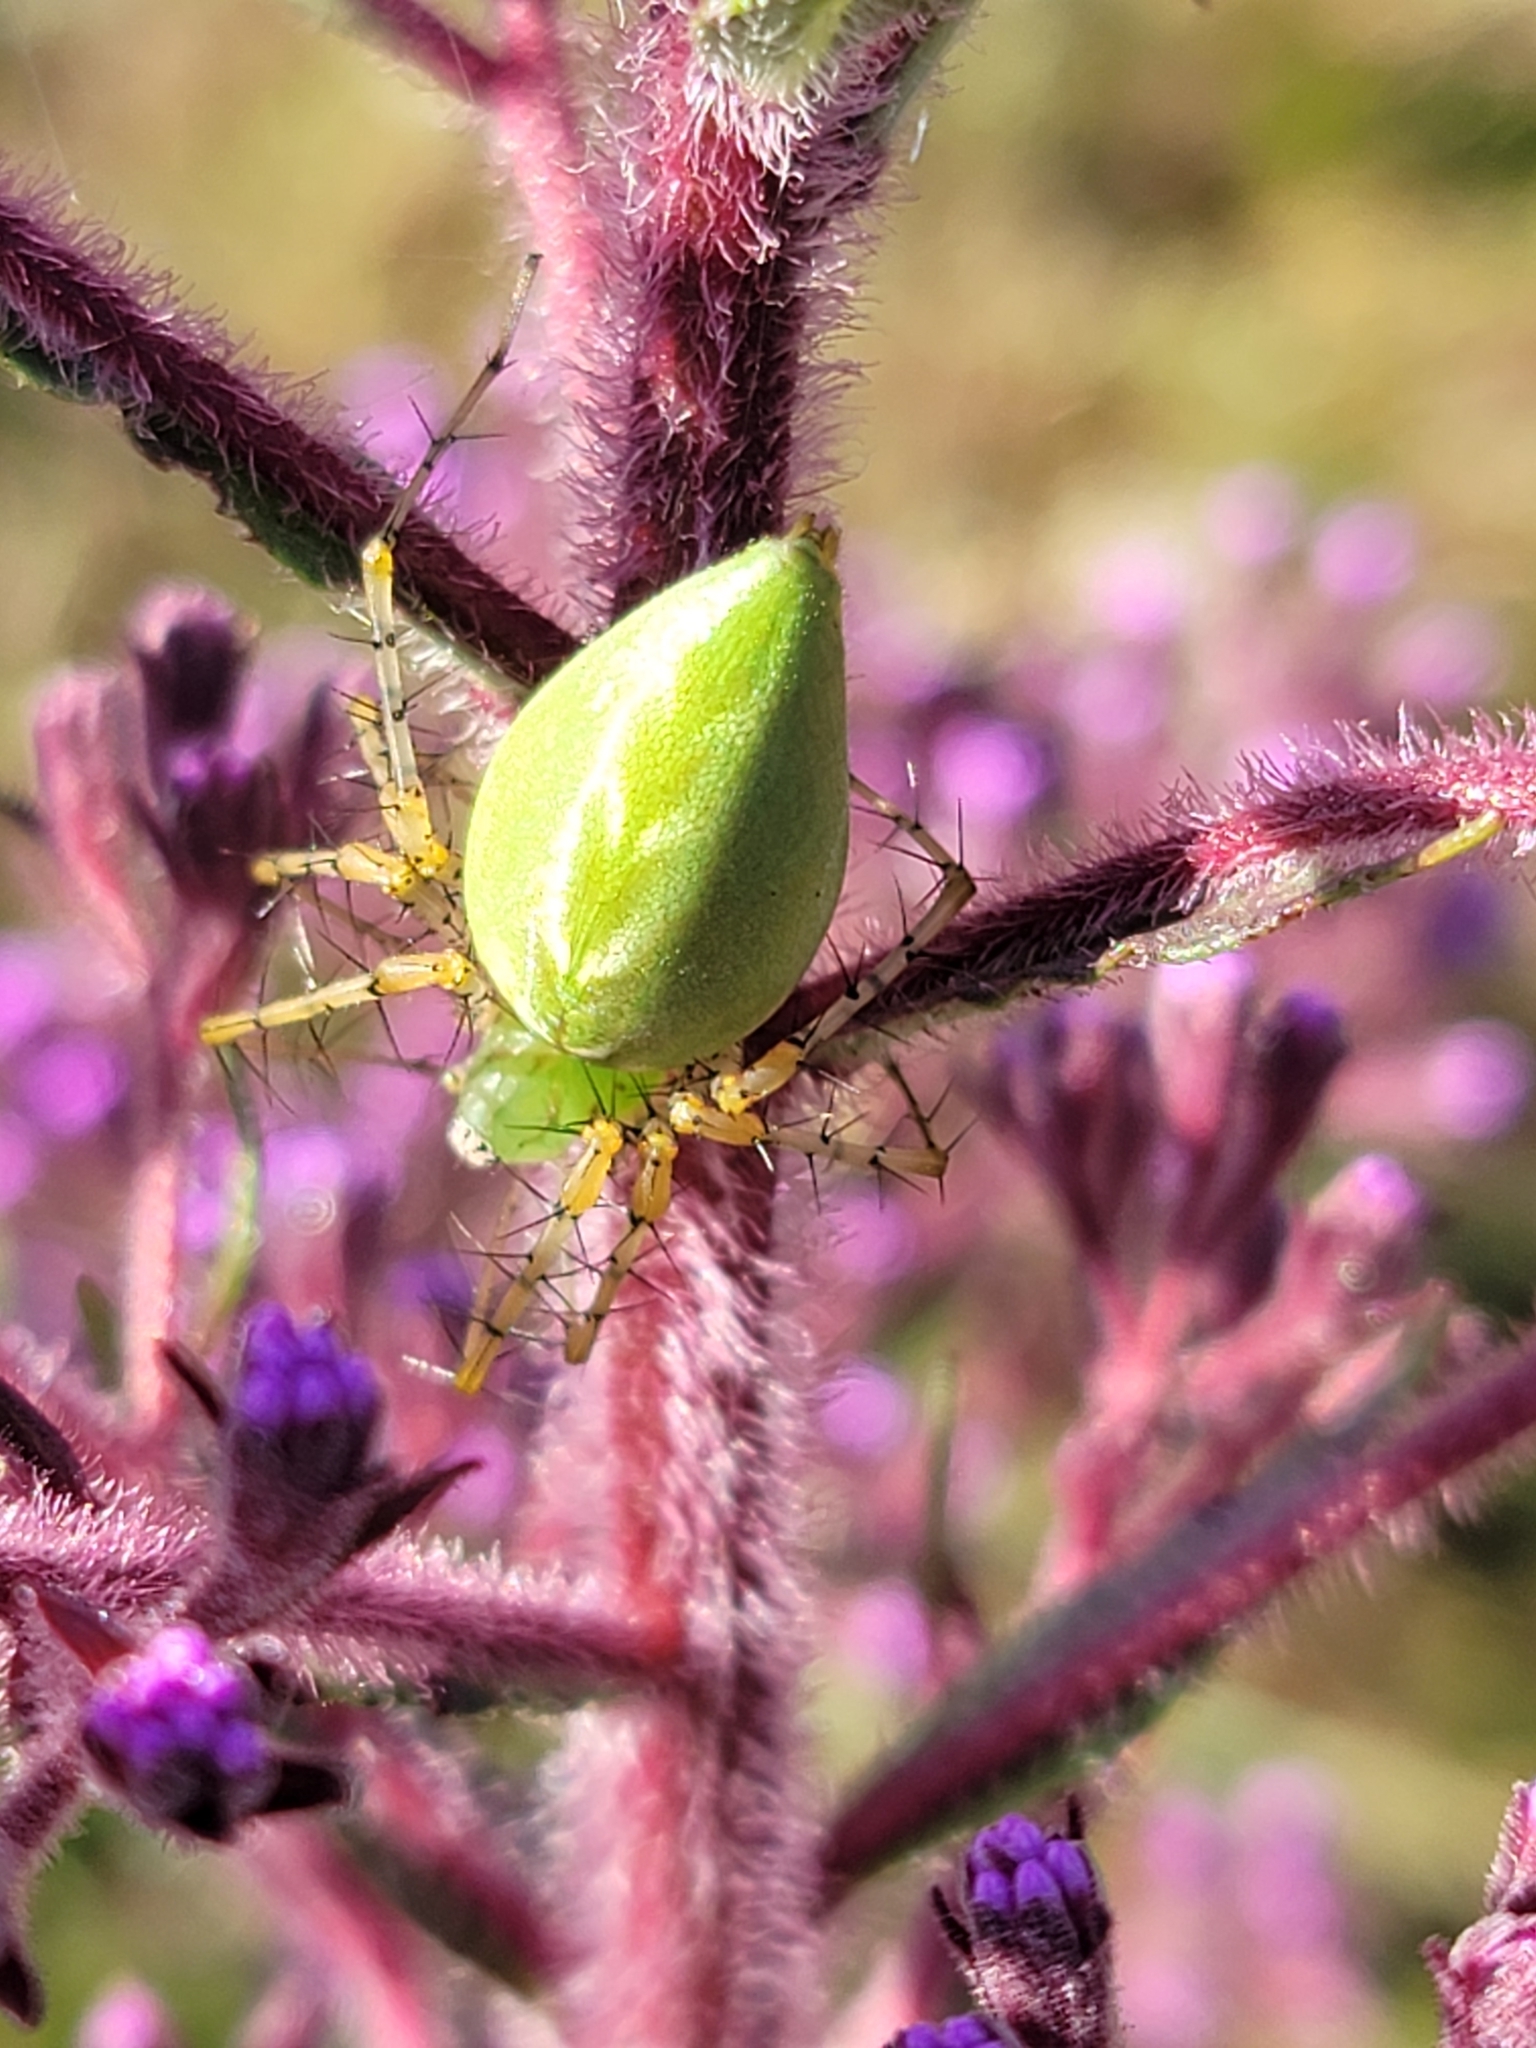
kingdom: Animalia
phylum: Arthropoda
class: Arachnida
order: Araneae
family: Oxyopidae
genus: Peucetia
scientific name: Peucetia viridans
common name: Lynx spiders
